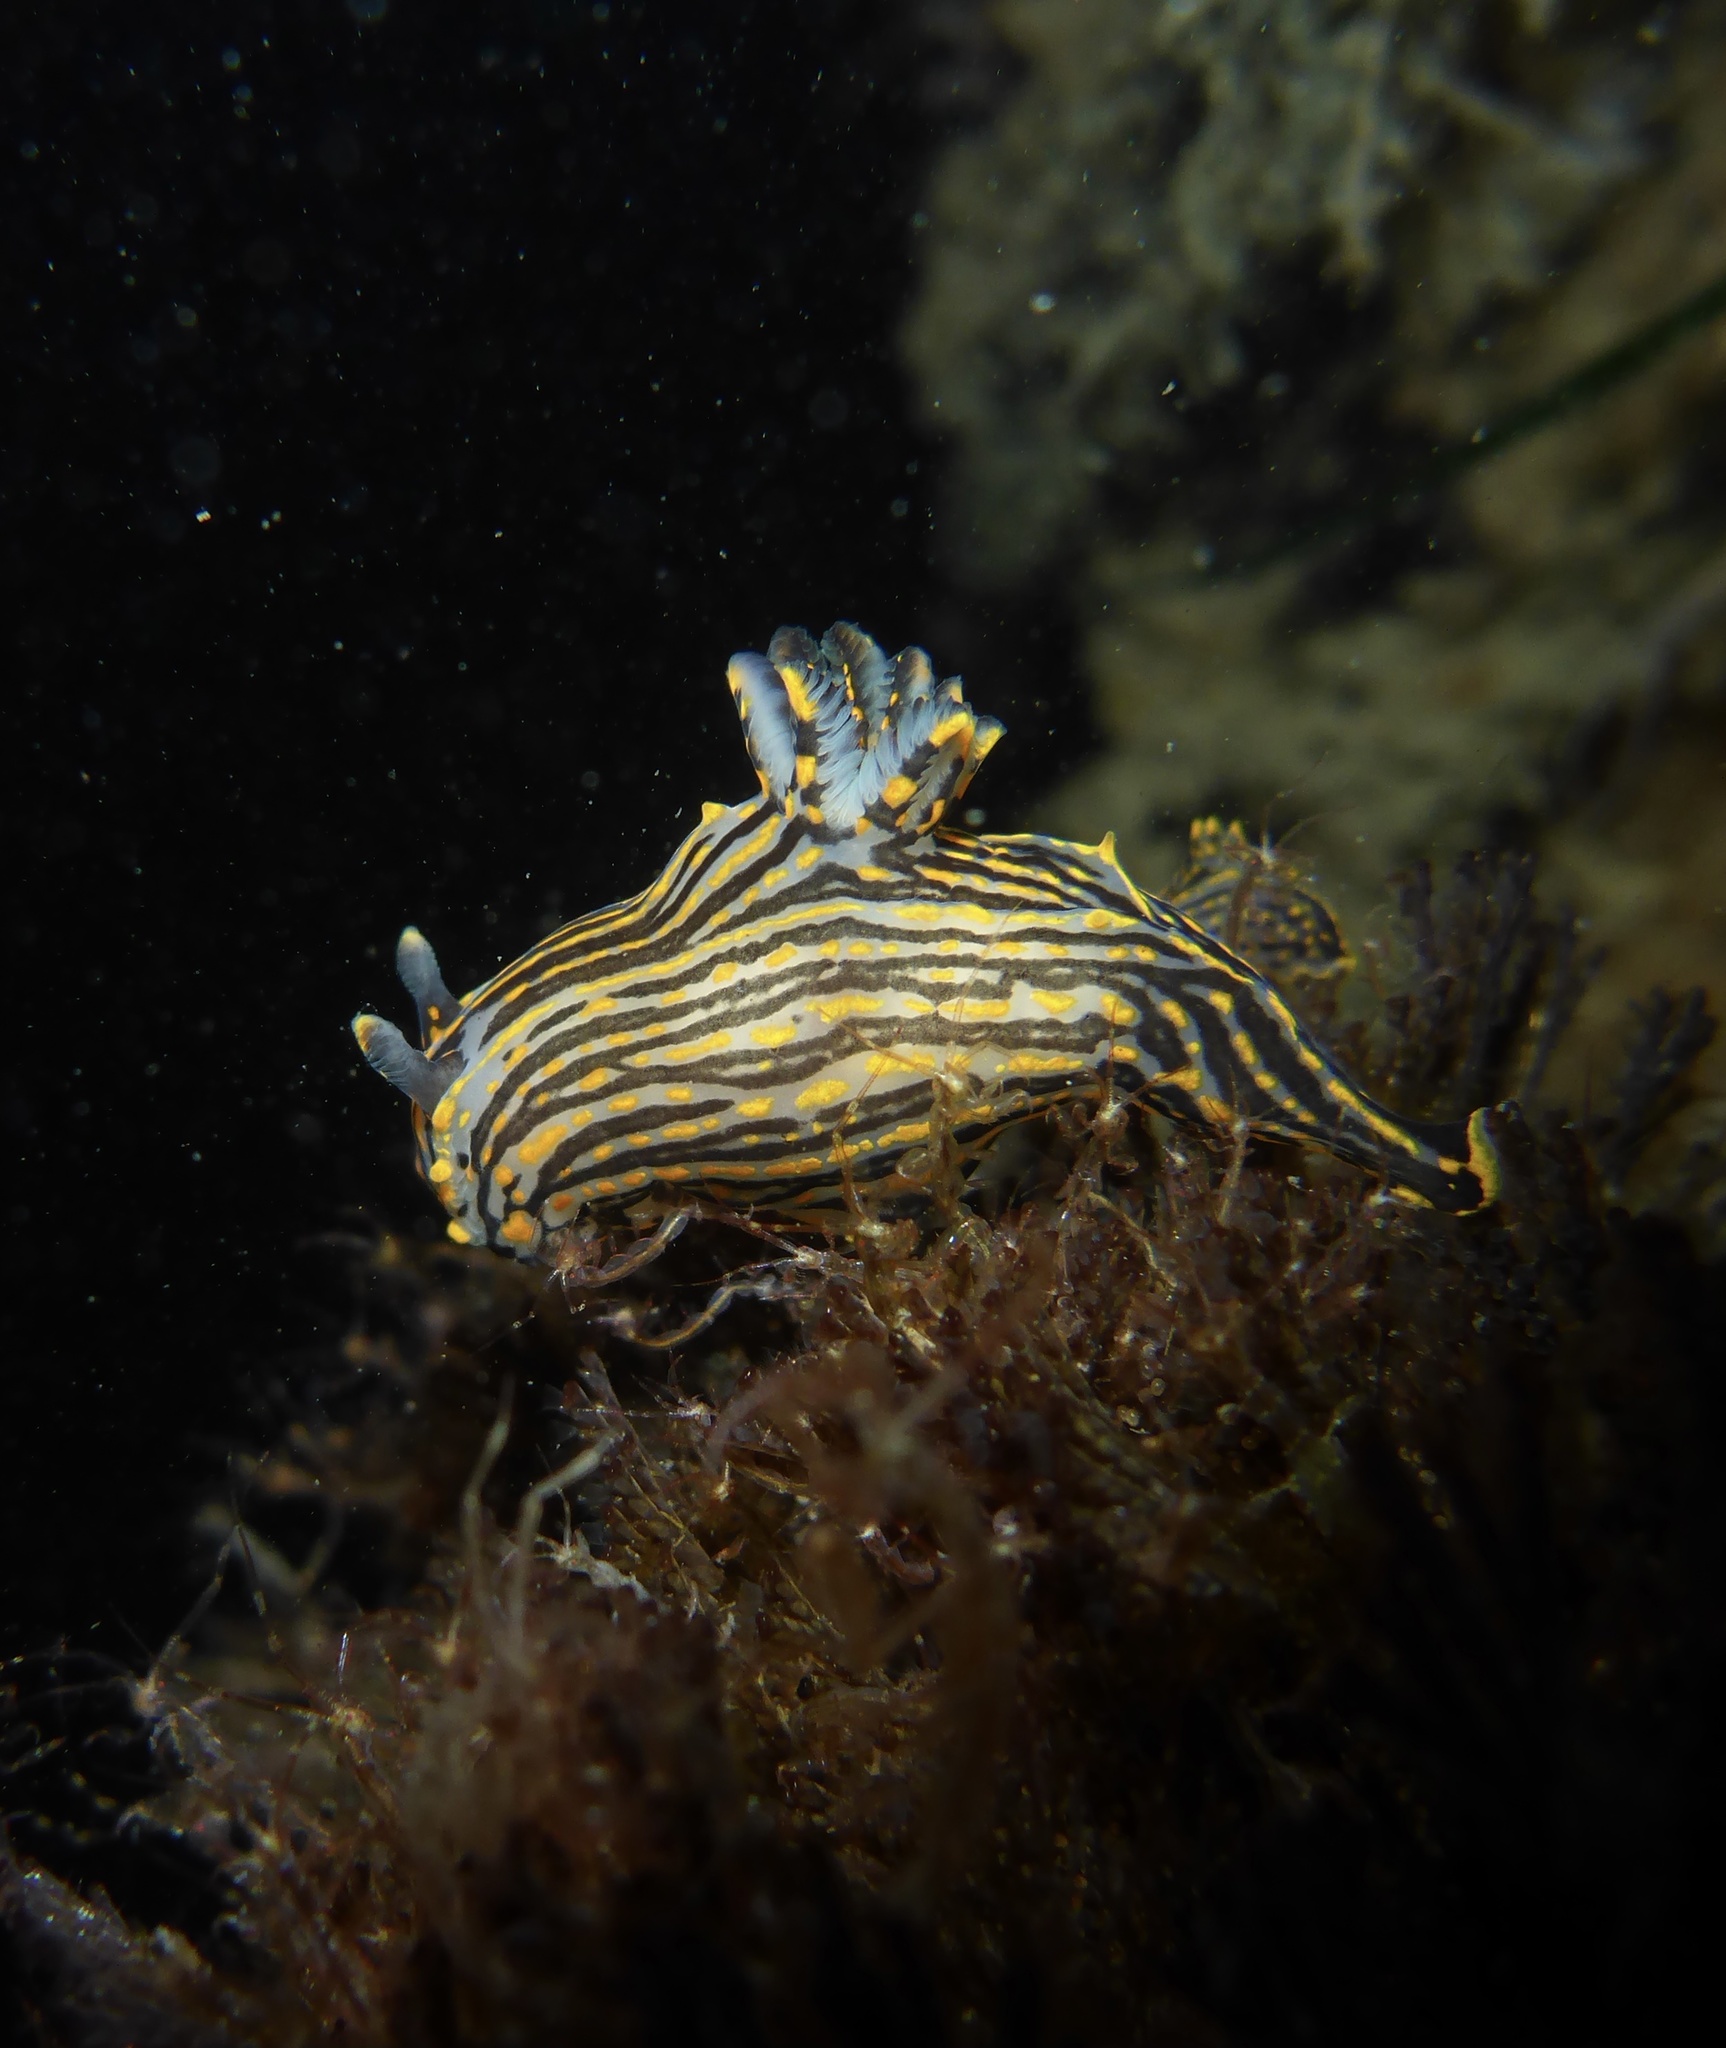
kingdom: Animalia
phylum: Mollusca
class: Gastropoda
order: Nudibranchia
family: Polyceridae
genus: Polycera
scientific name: Polycera atra
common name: Orange-spike polycera
